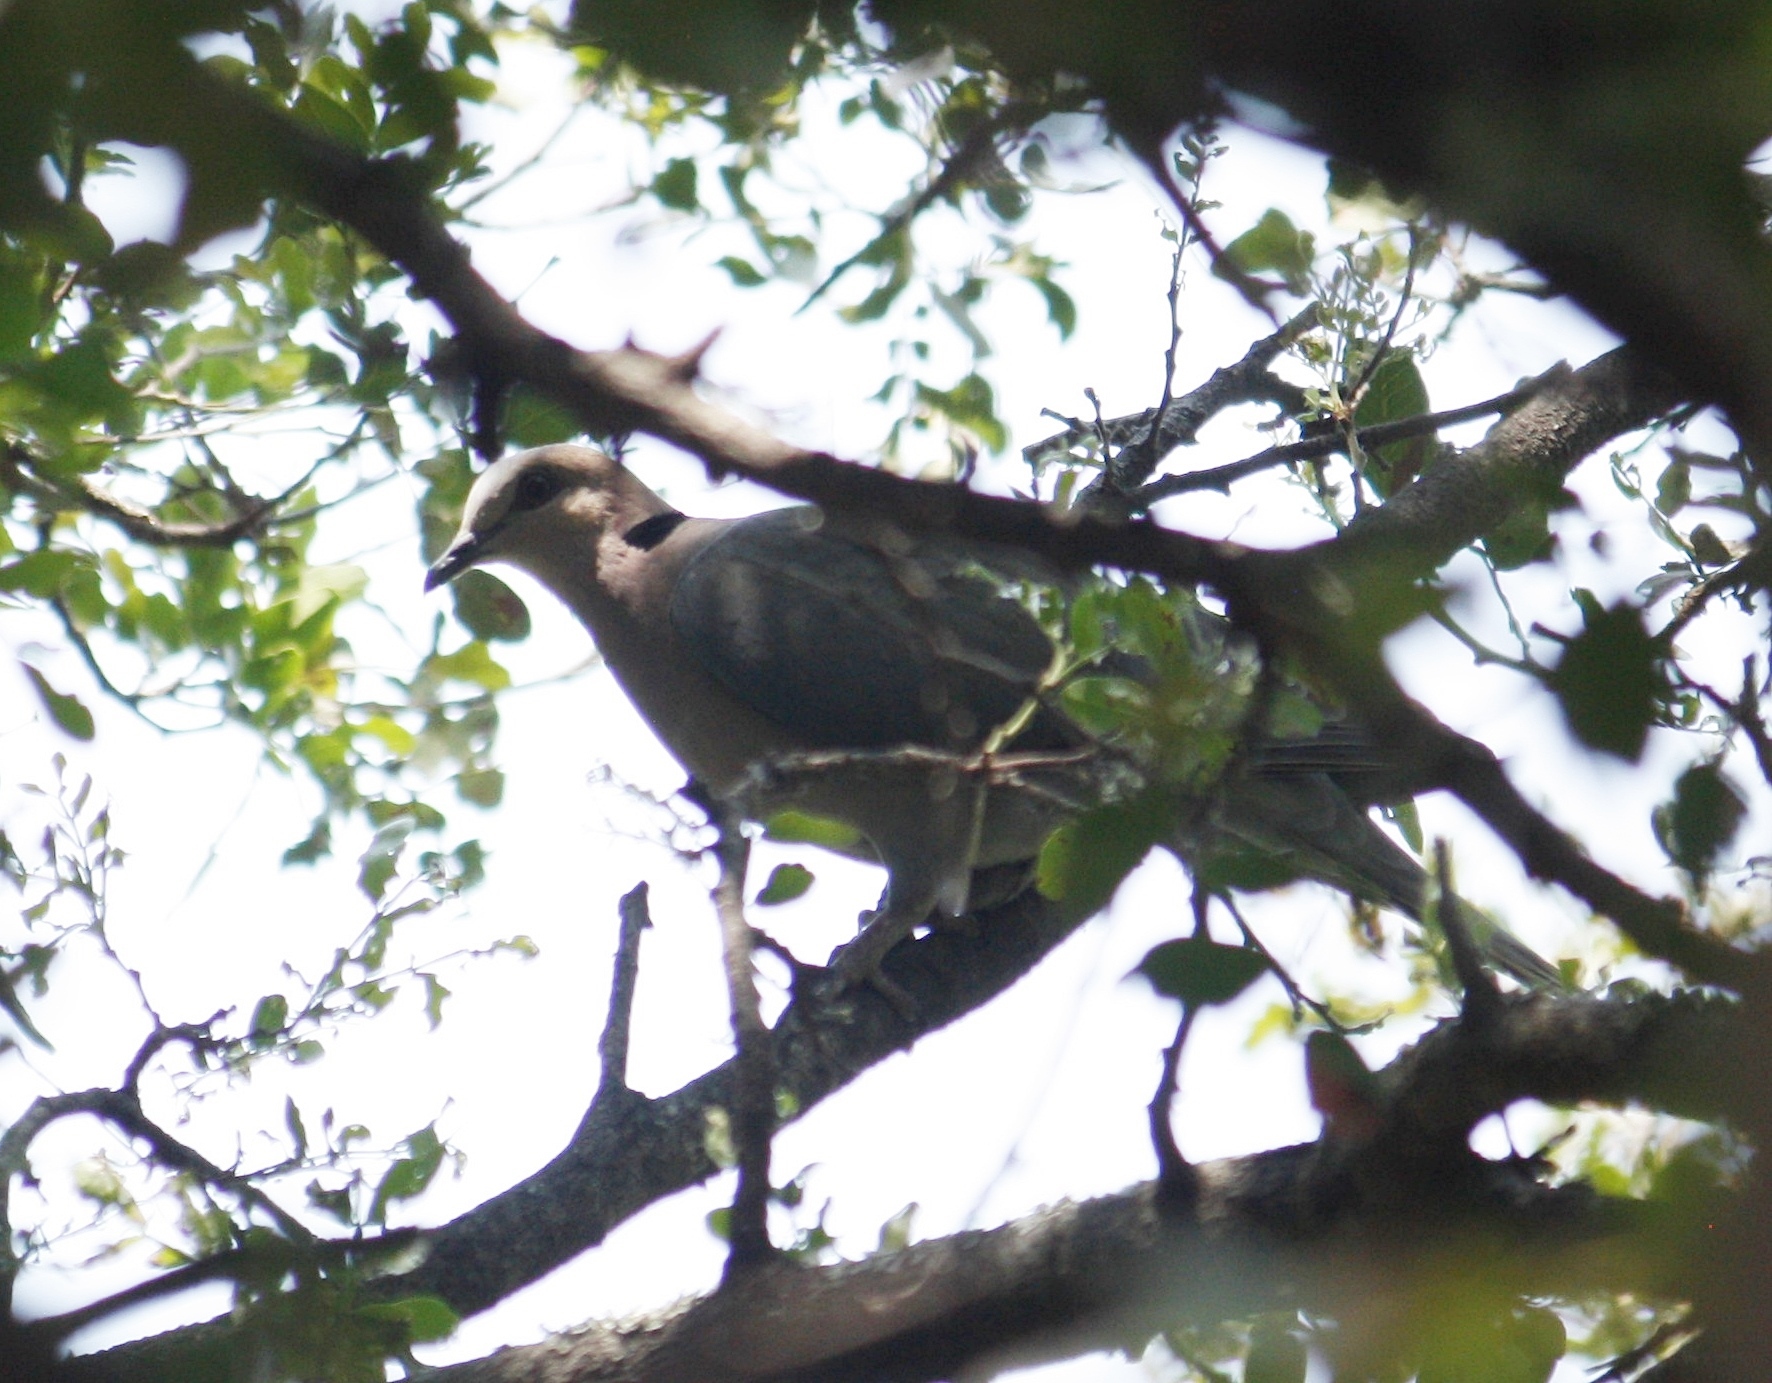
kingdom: Animalia
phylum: Chordata
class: Aves
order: Columbiformes
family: Columbidae
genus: Streptopelia
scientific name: Streptopelia semitorquata
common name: Red-eyed dove
